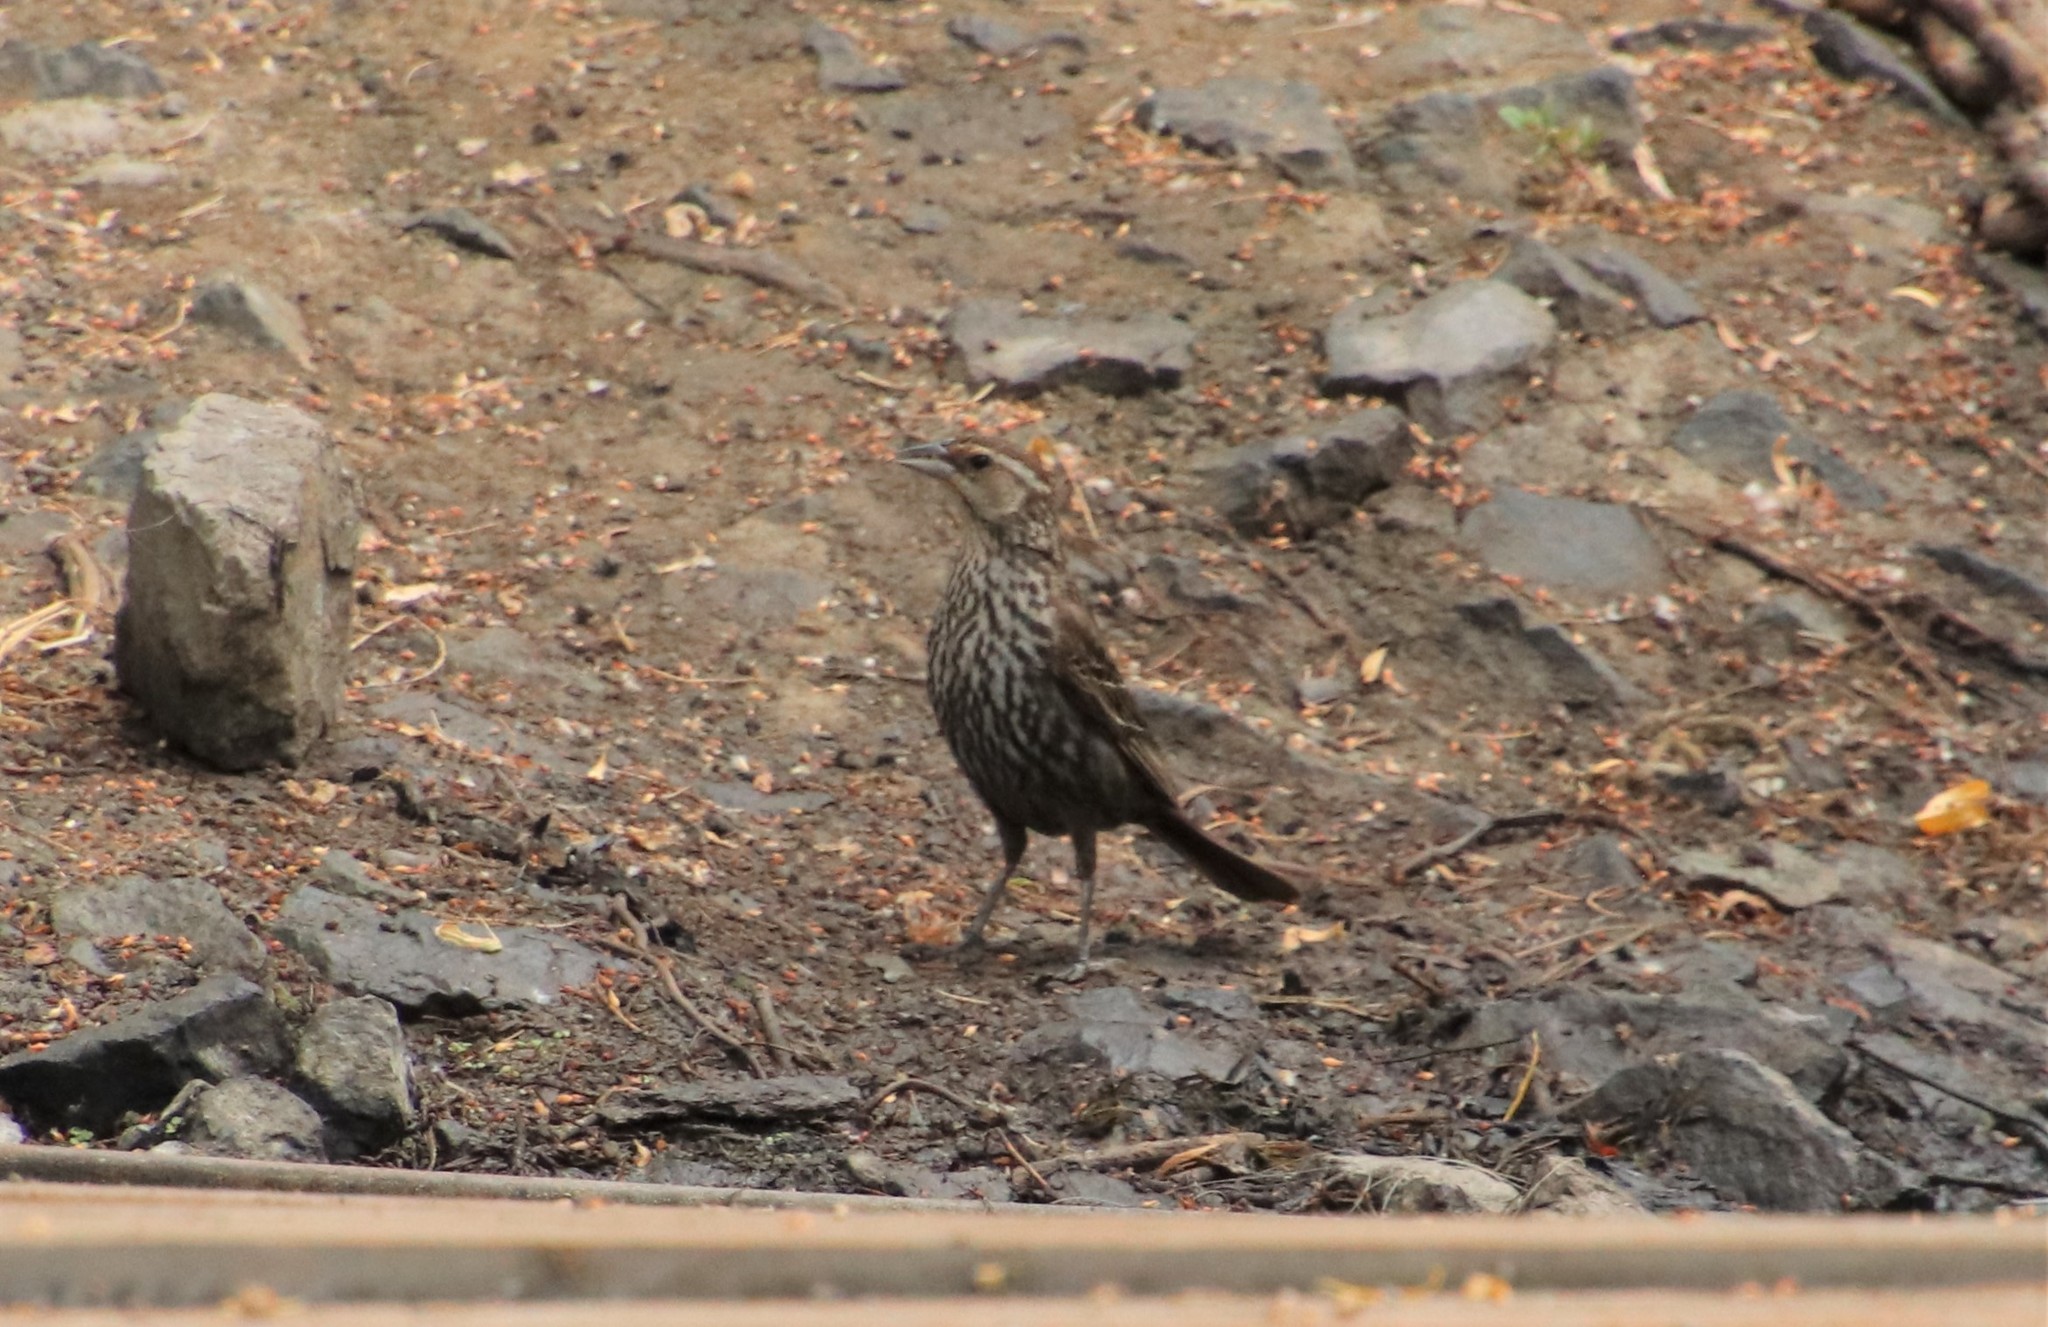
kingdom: Animalia
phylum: Chordata
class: Aves
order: Passeriformes
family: Icteridae
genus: Agelaius
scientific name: Agelaius phoeniceus
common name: Red-winged blackbird
